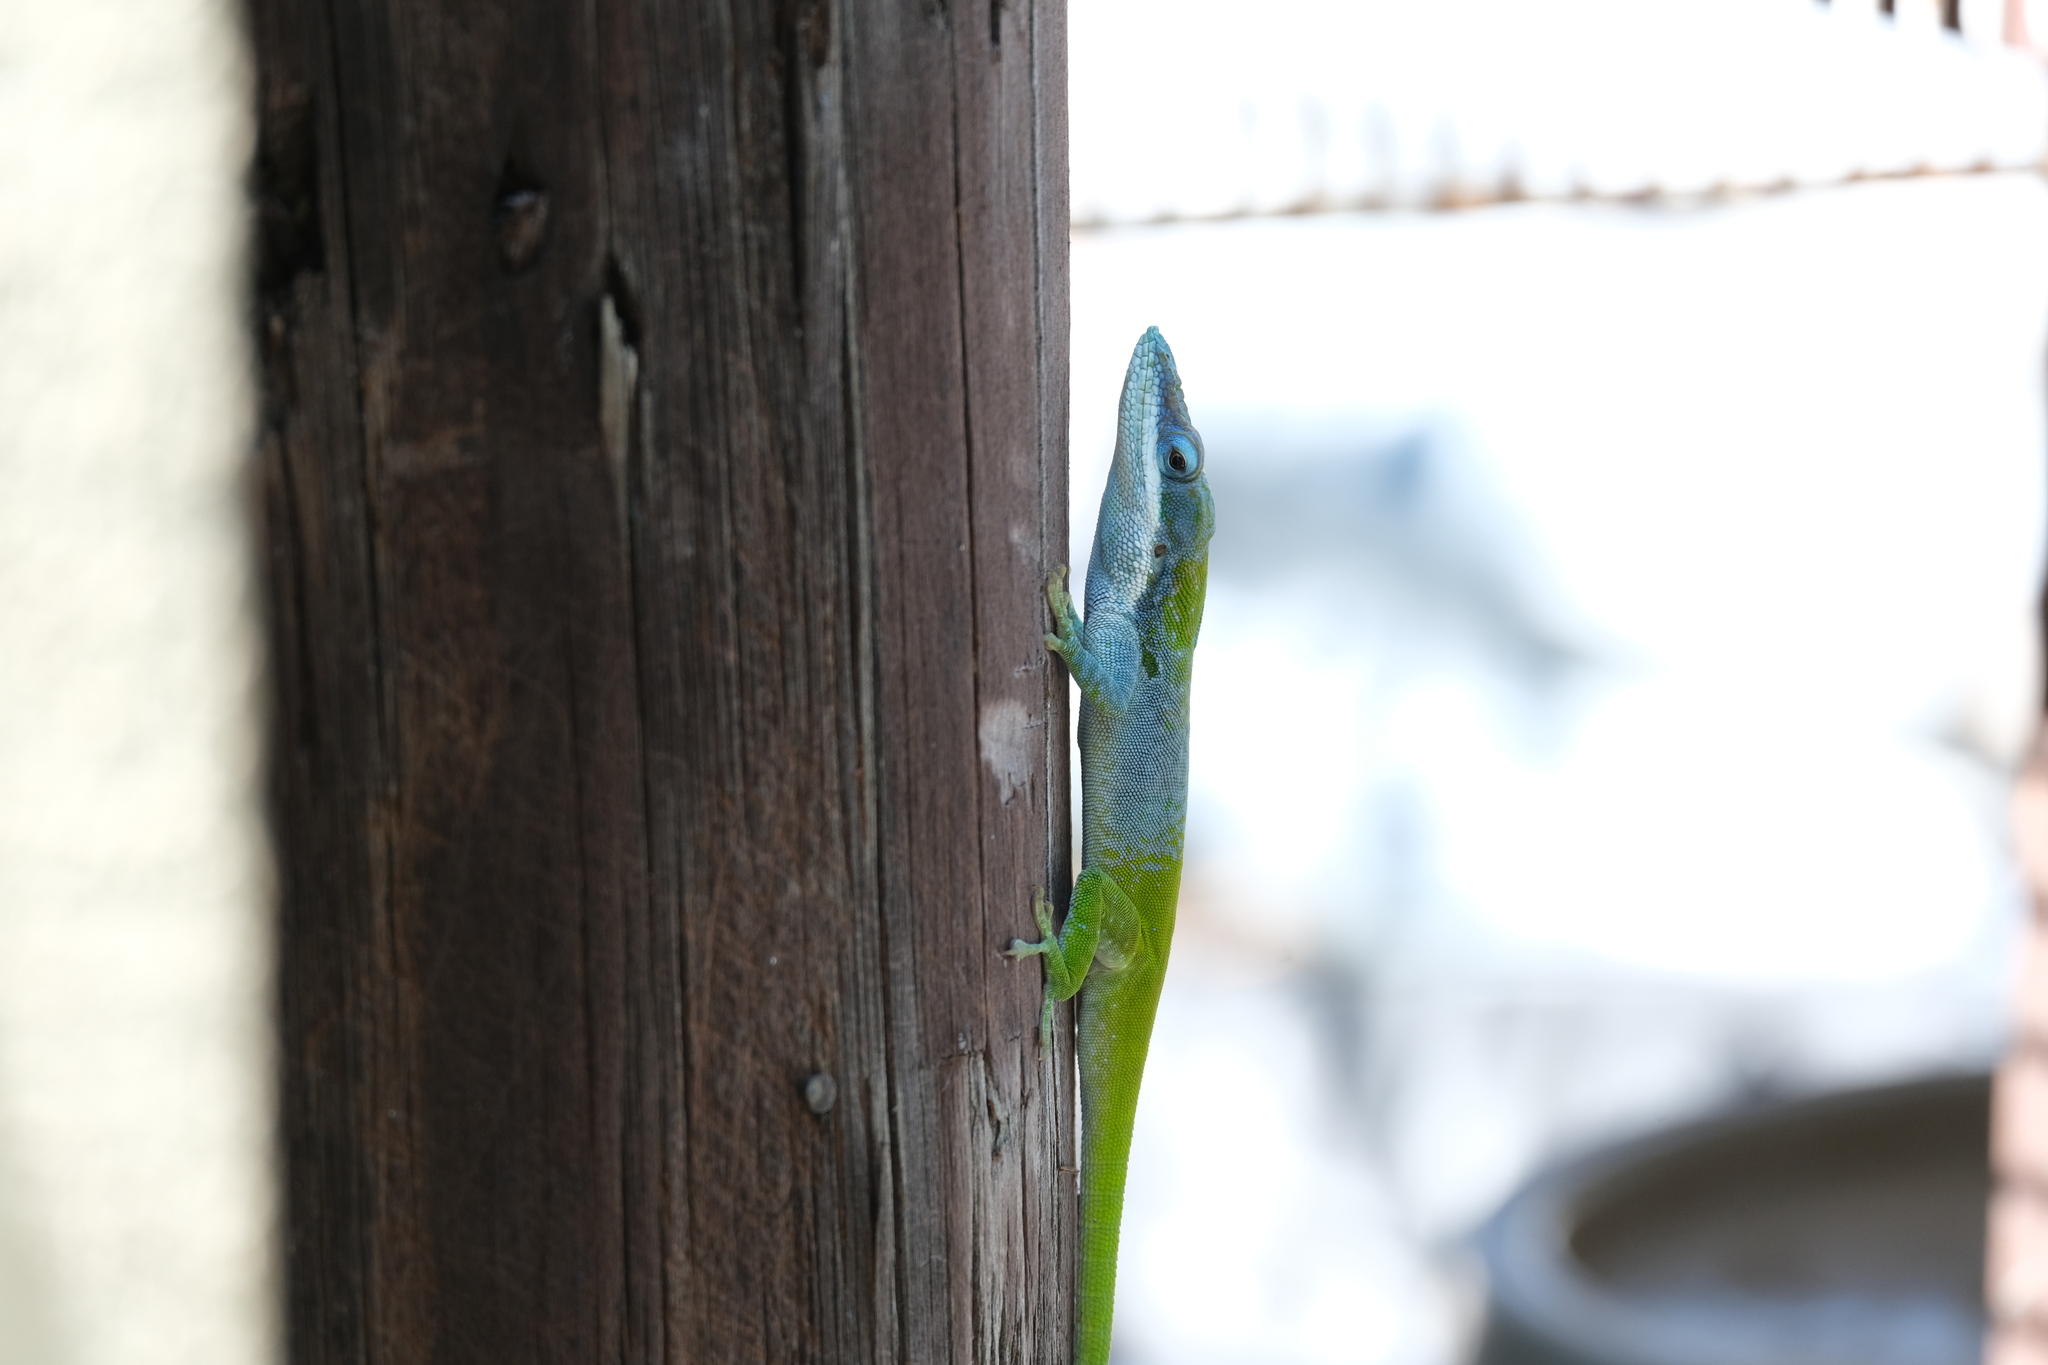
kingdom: Animalia
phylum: Chordata
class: Squamata
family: Dactyloidae
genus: Anolis
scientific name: Anolis allisoni
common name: Allison's anole
